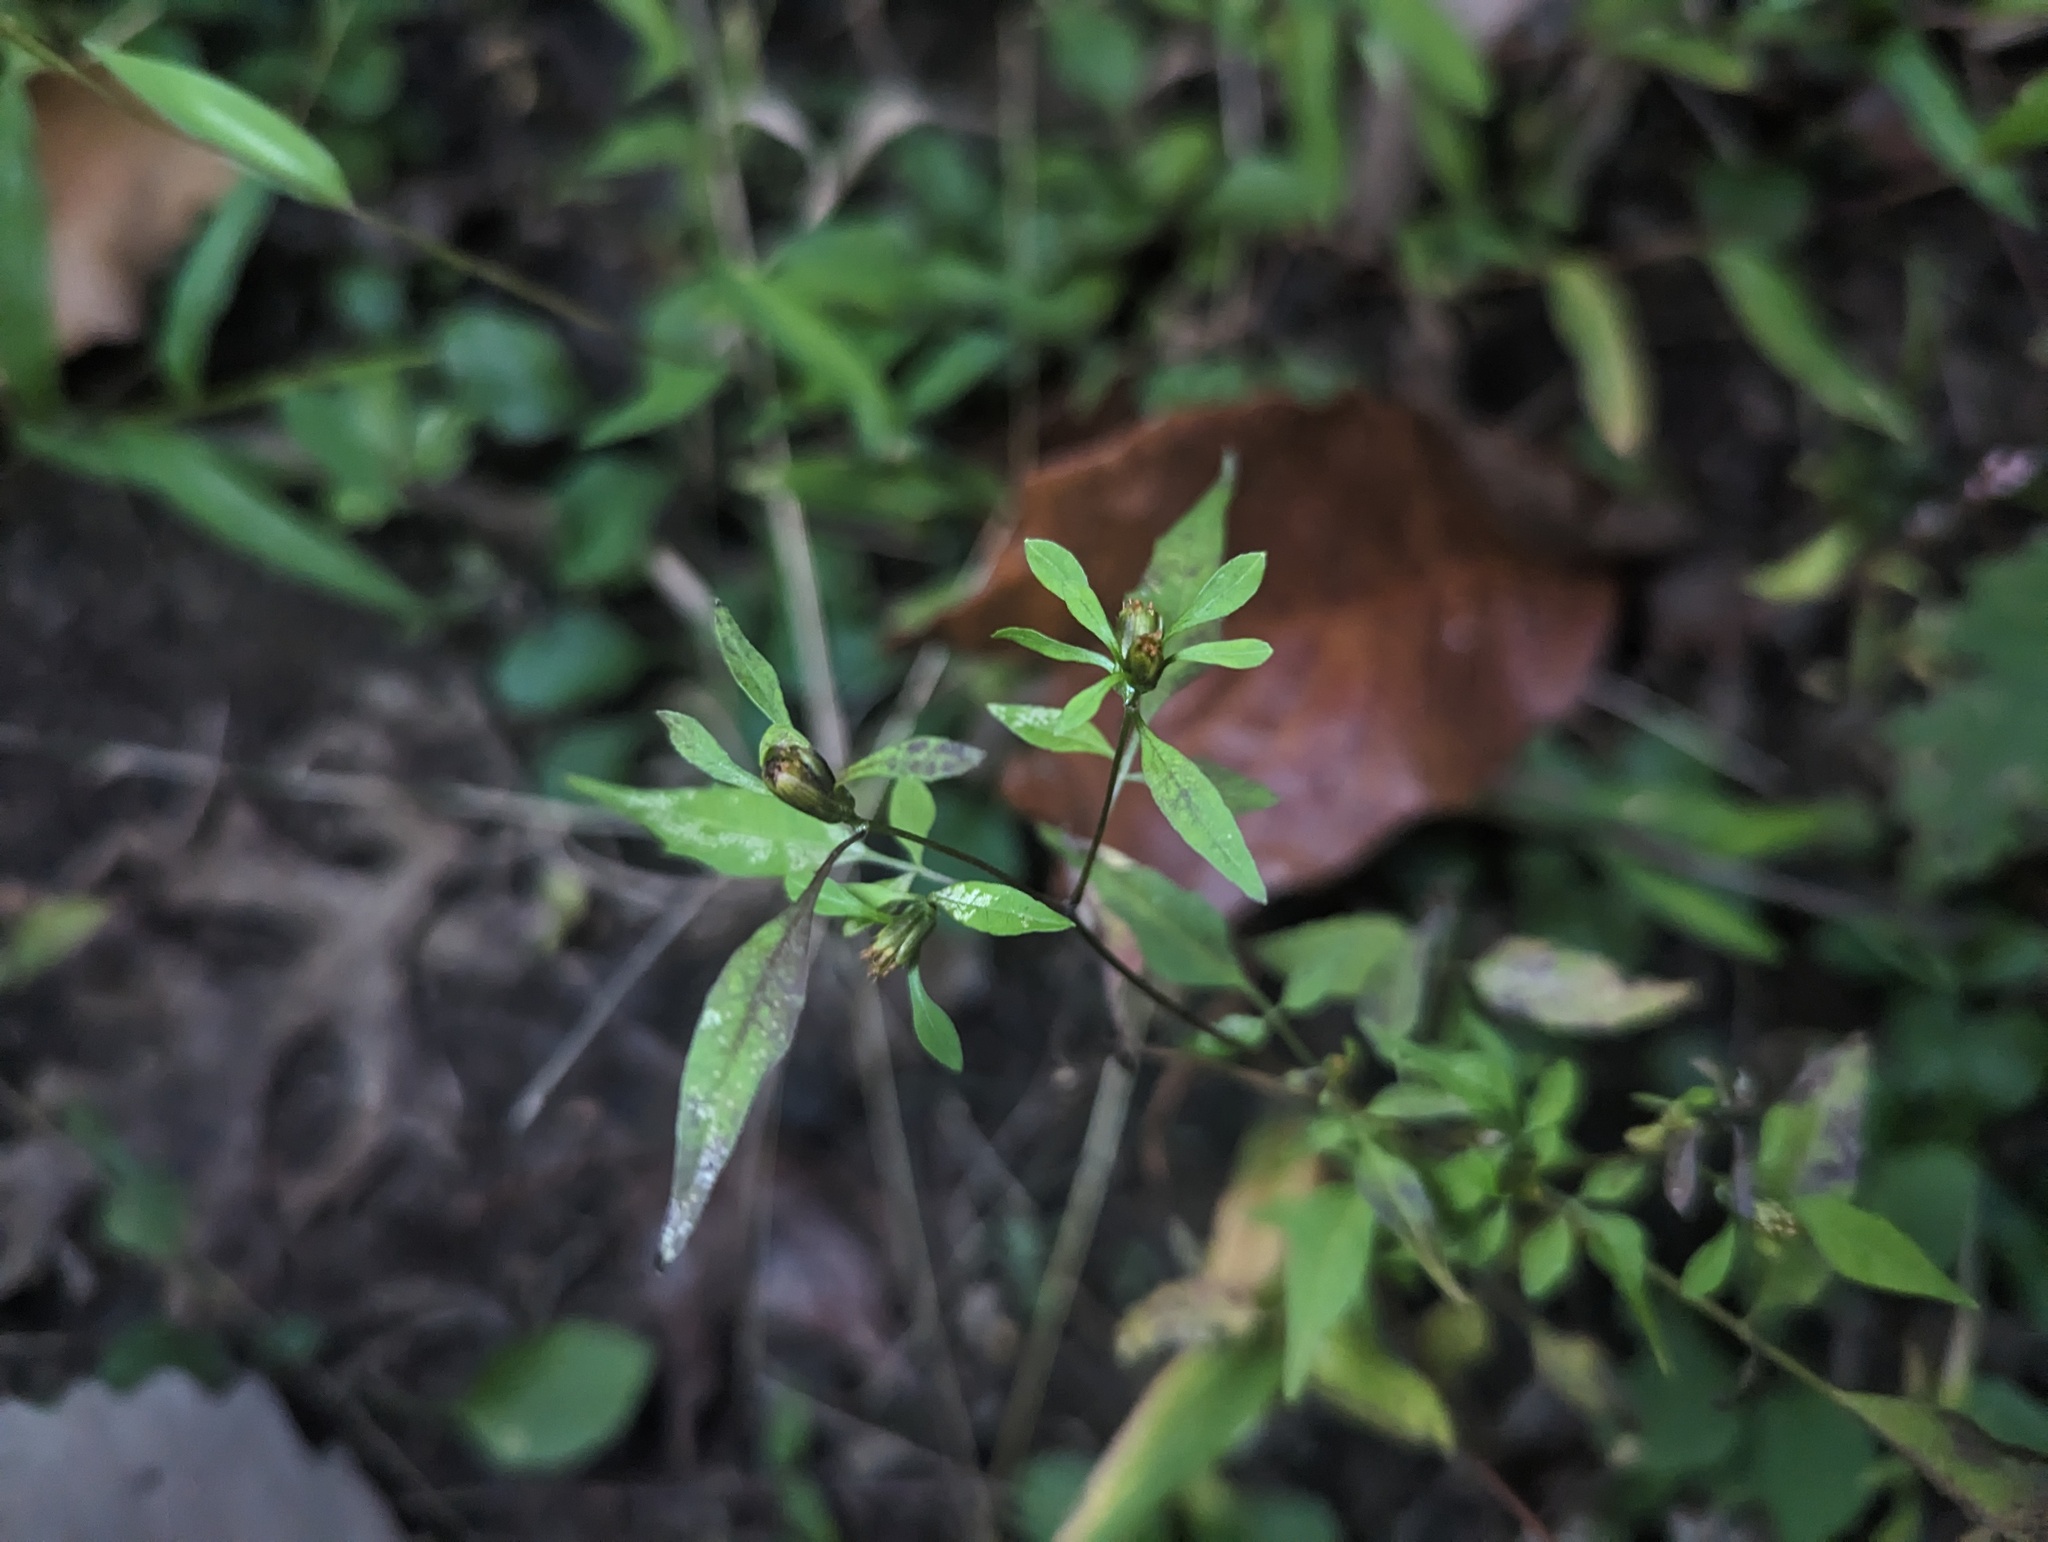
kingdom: Plantae
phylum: Tracheophyta
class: Magnoliopsida
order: Asterales
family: Asteraceae
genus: Bidens
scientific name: Bidens discoidea
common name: Discoide beggarticks
